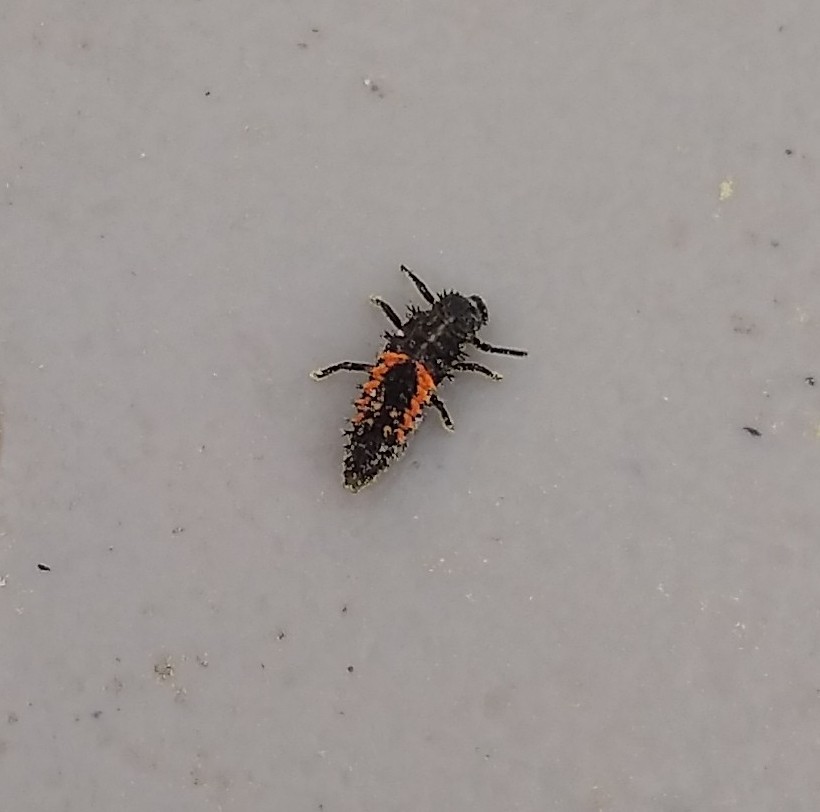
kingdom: Animalia
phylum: Arthropoda
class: Insecta
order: Coleoptera
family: Coccinellidae
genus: Harmonia
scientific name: Harmonia axyridis
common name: Harlequin ladybird
